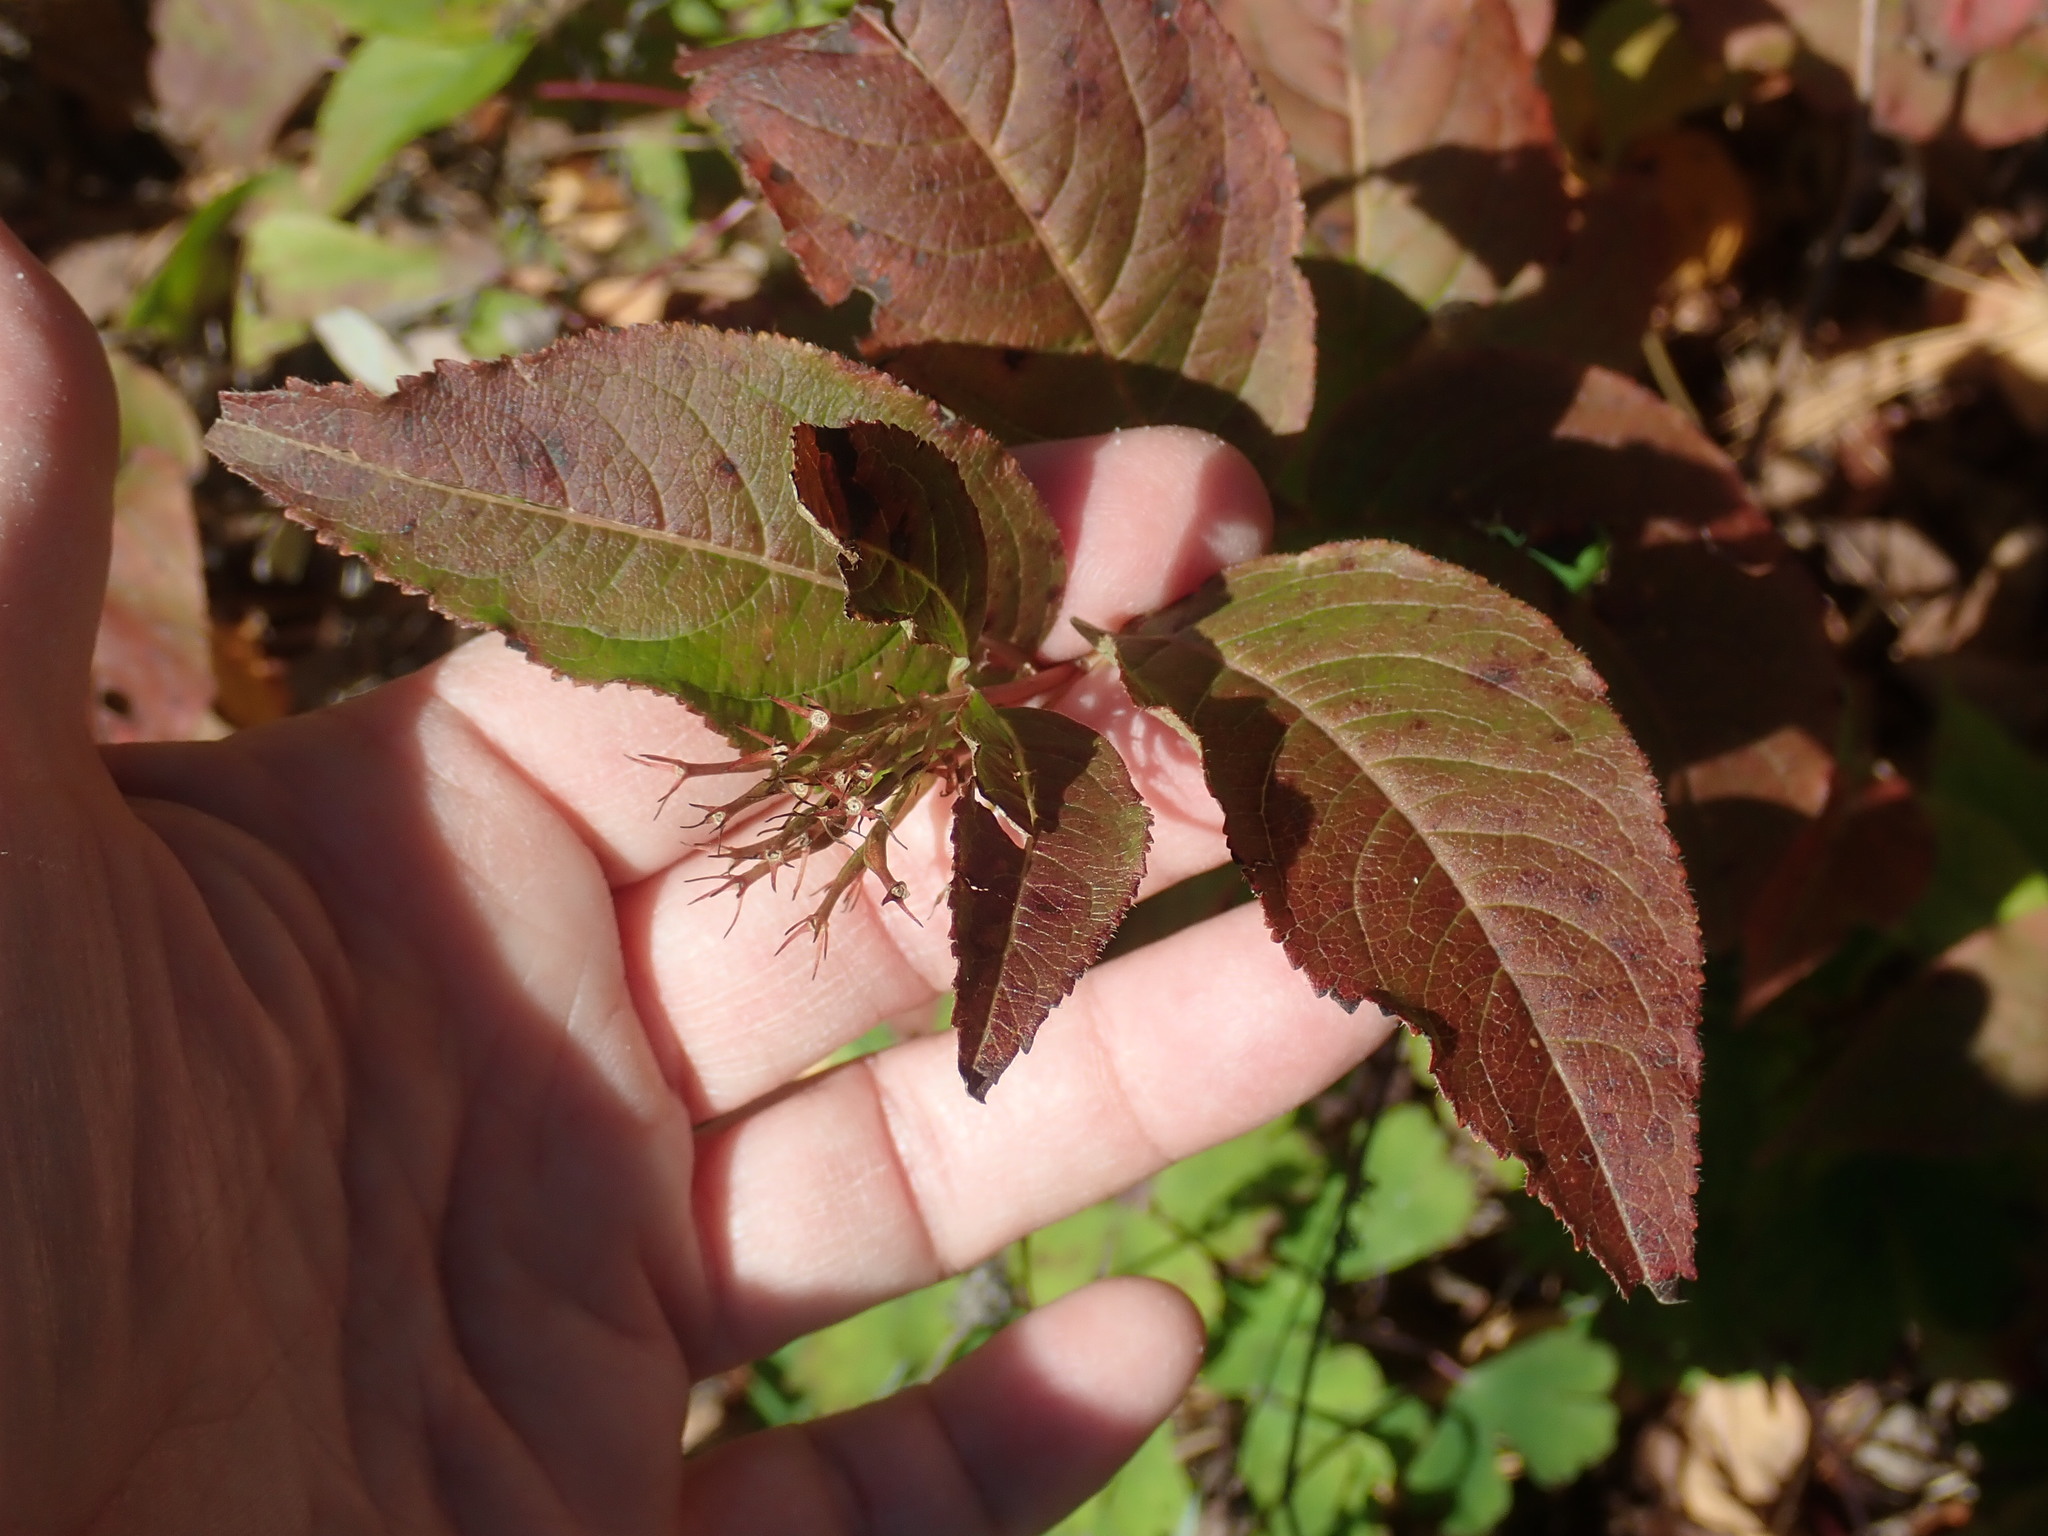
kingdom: Plantae
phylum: Tracheophyta
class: Magnoliopsida
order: Dipsacales
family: Caprifoliaceae
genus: Diervilla
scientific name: Diervilla lonicera
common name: Bush-honeysuckle
